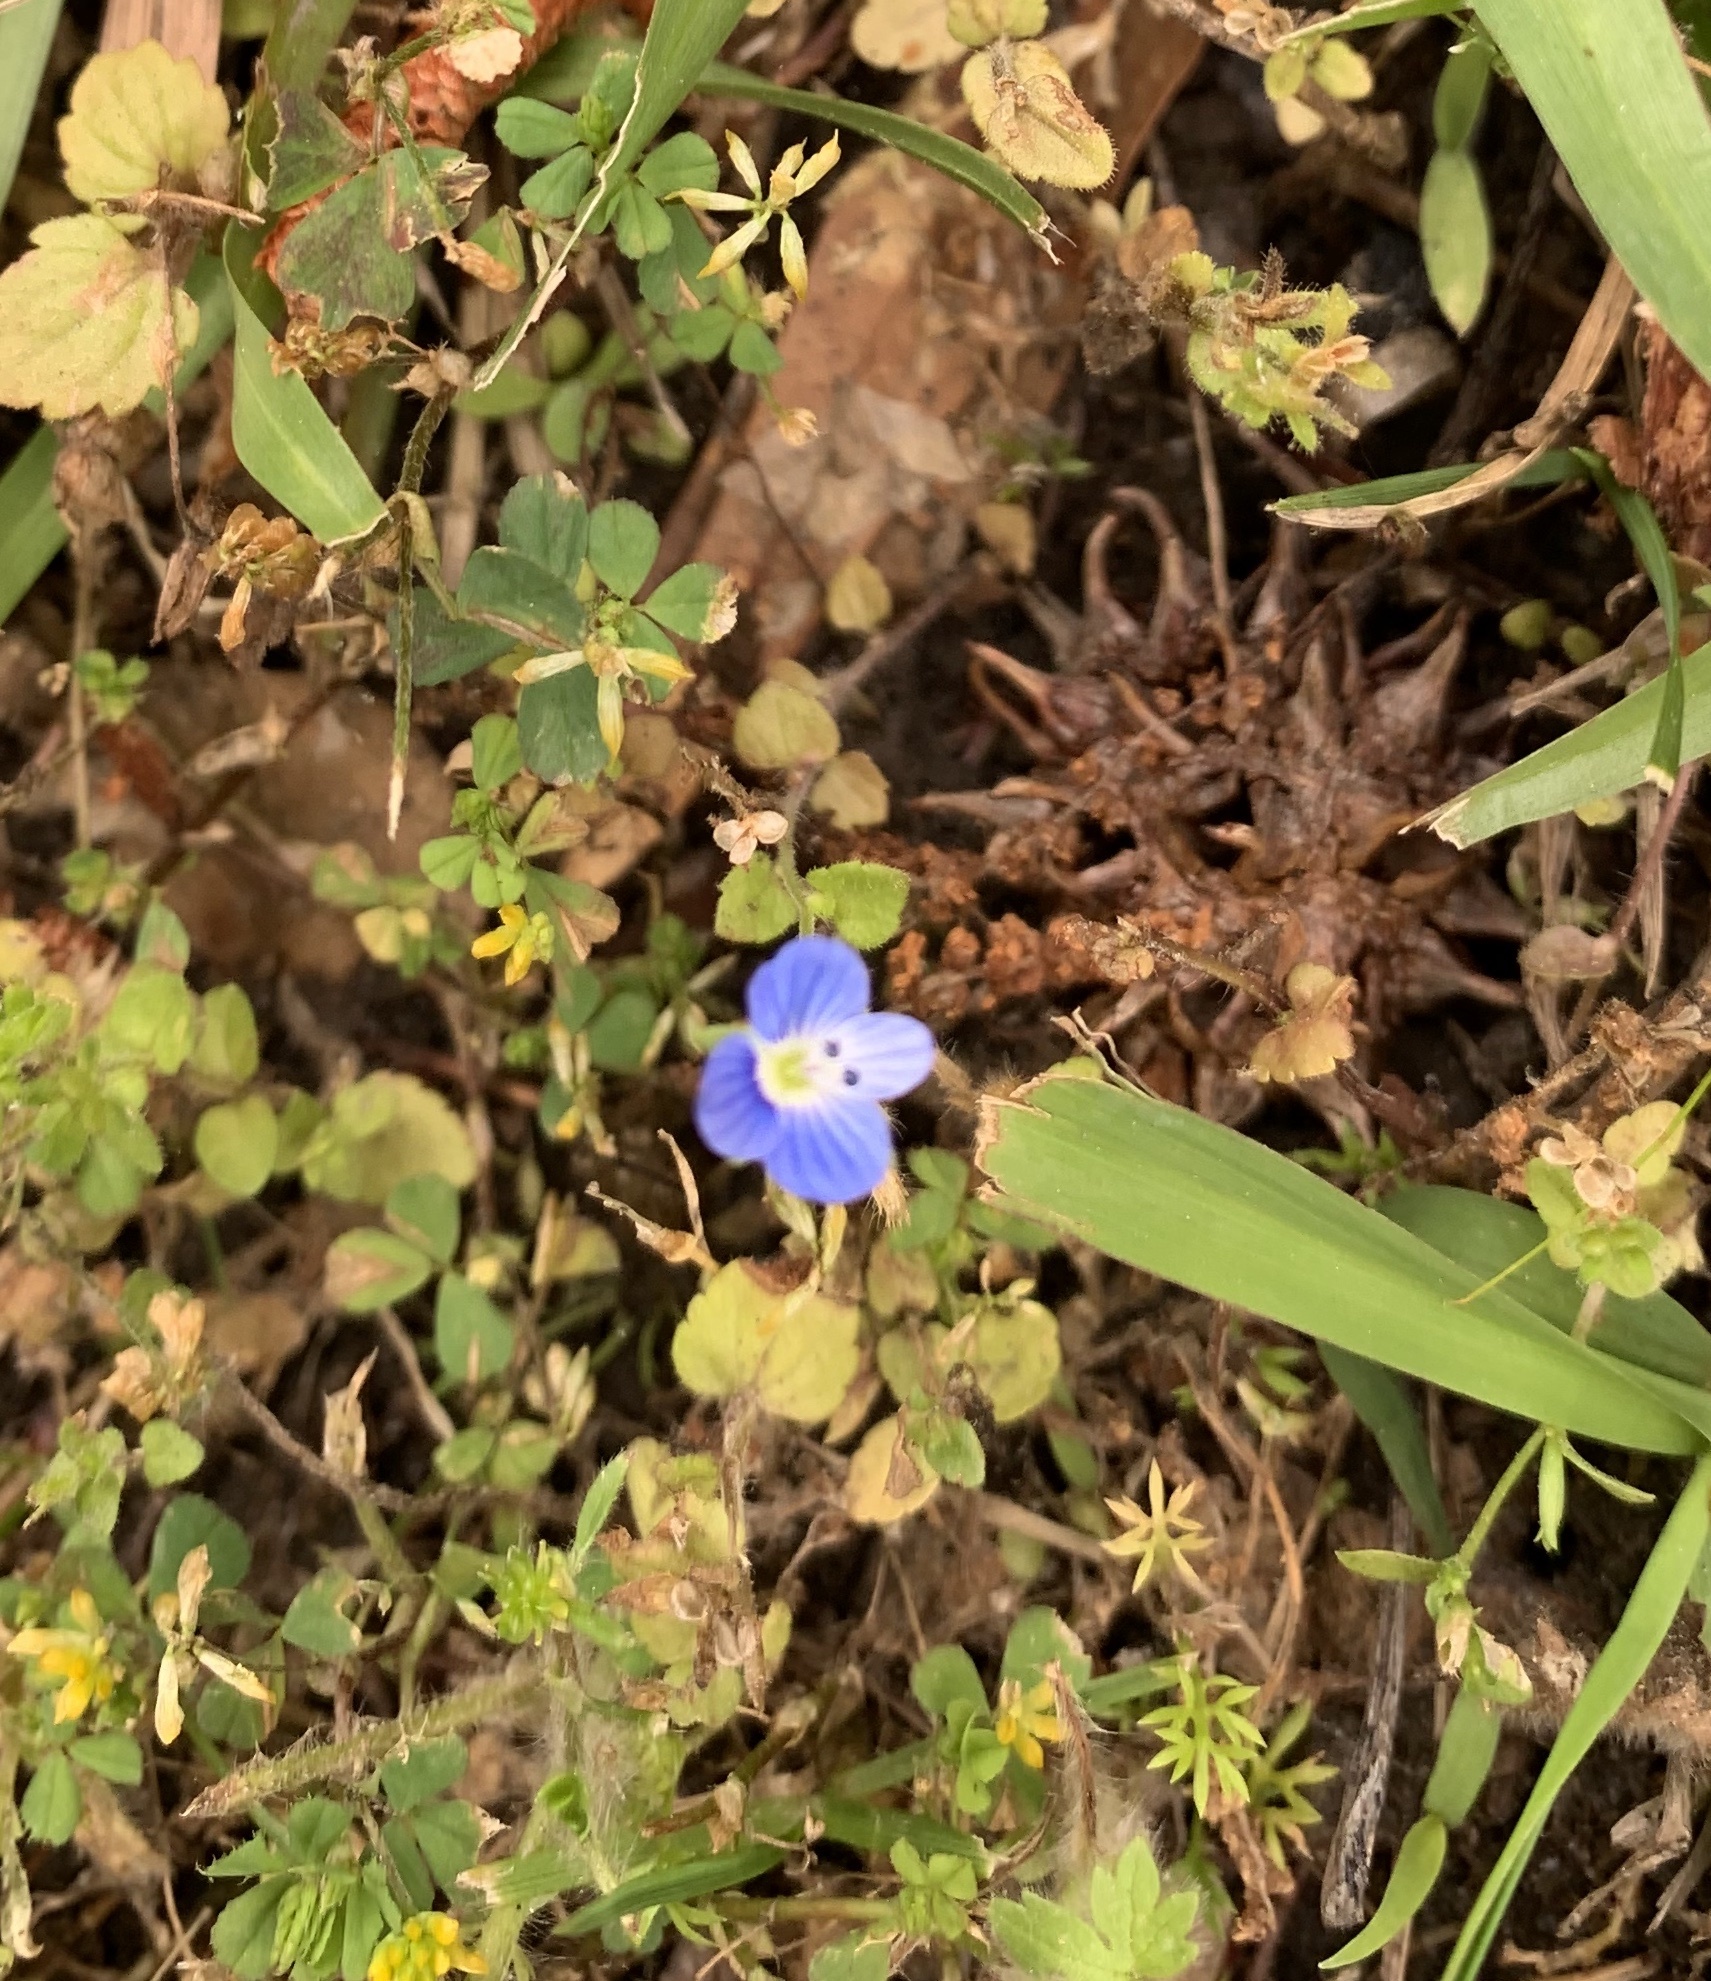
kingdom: Plantae
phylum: Tracheophyta
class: Magnoliopsida
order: Lamiales
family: Plantaginaceae
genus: Veronica
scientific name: Veronica persica
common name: Common field-speedwell
